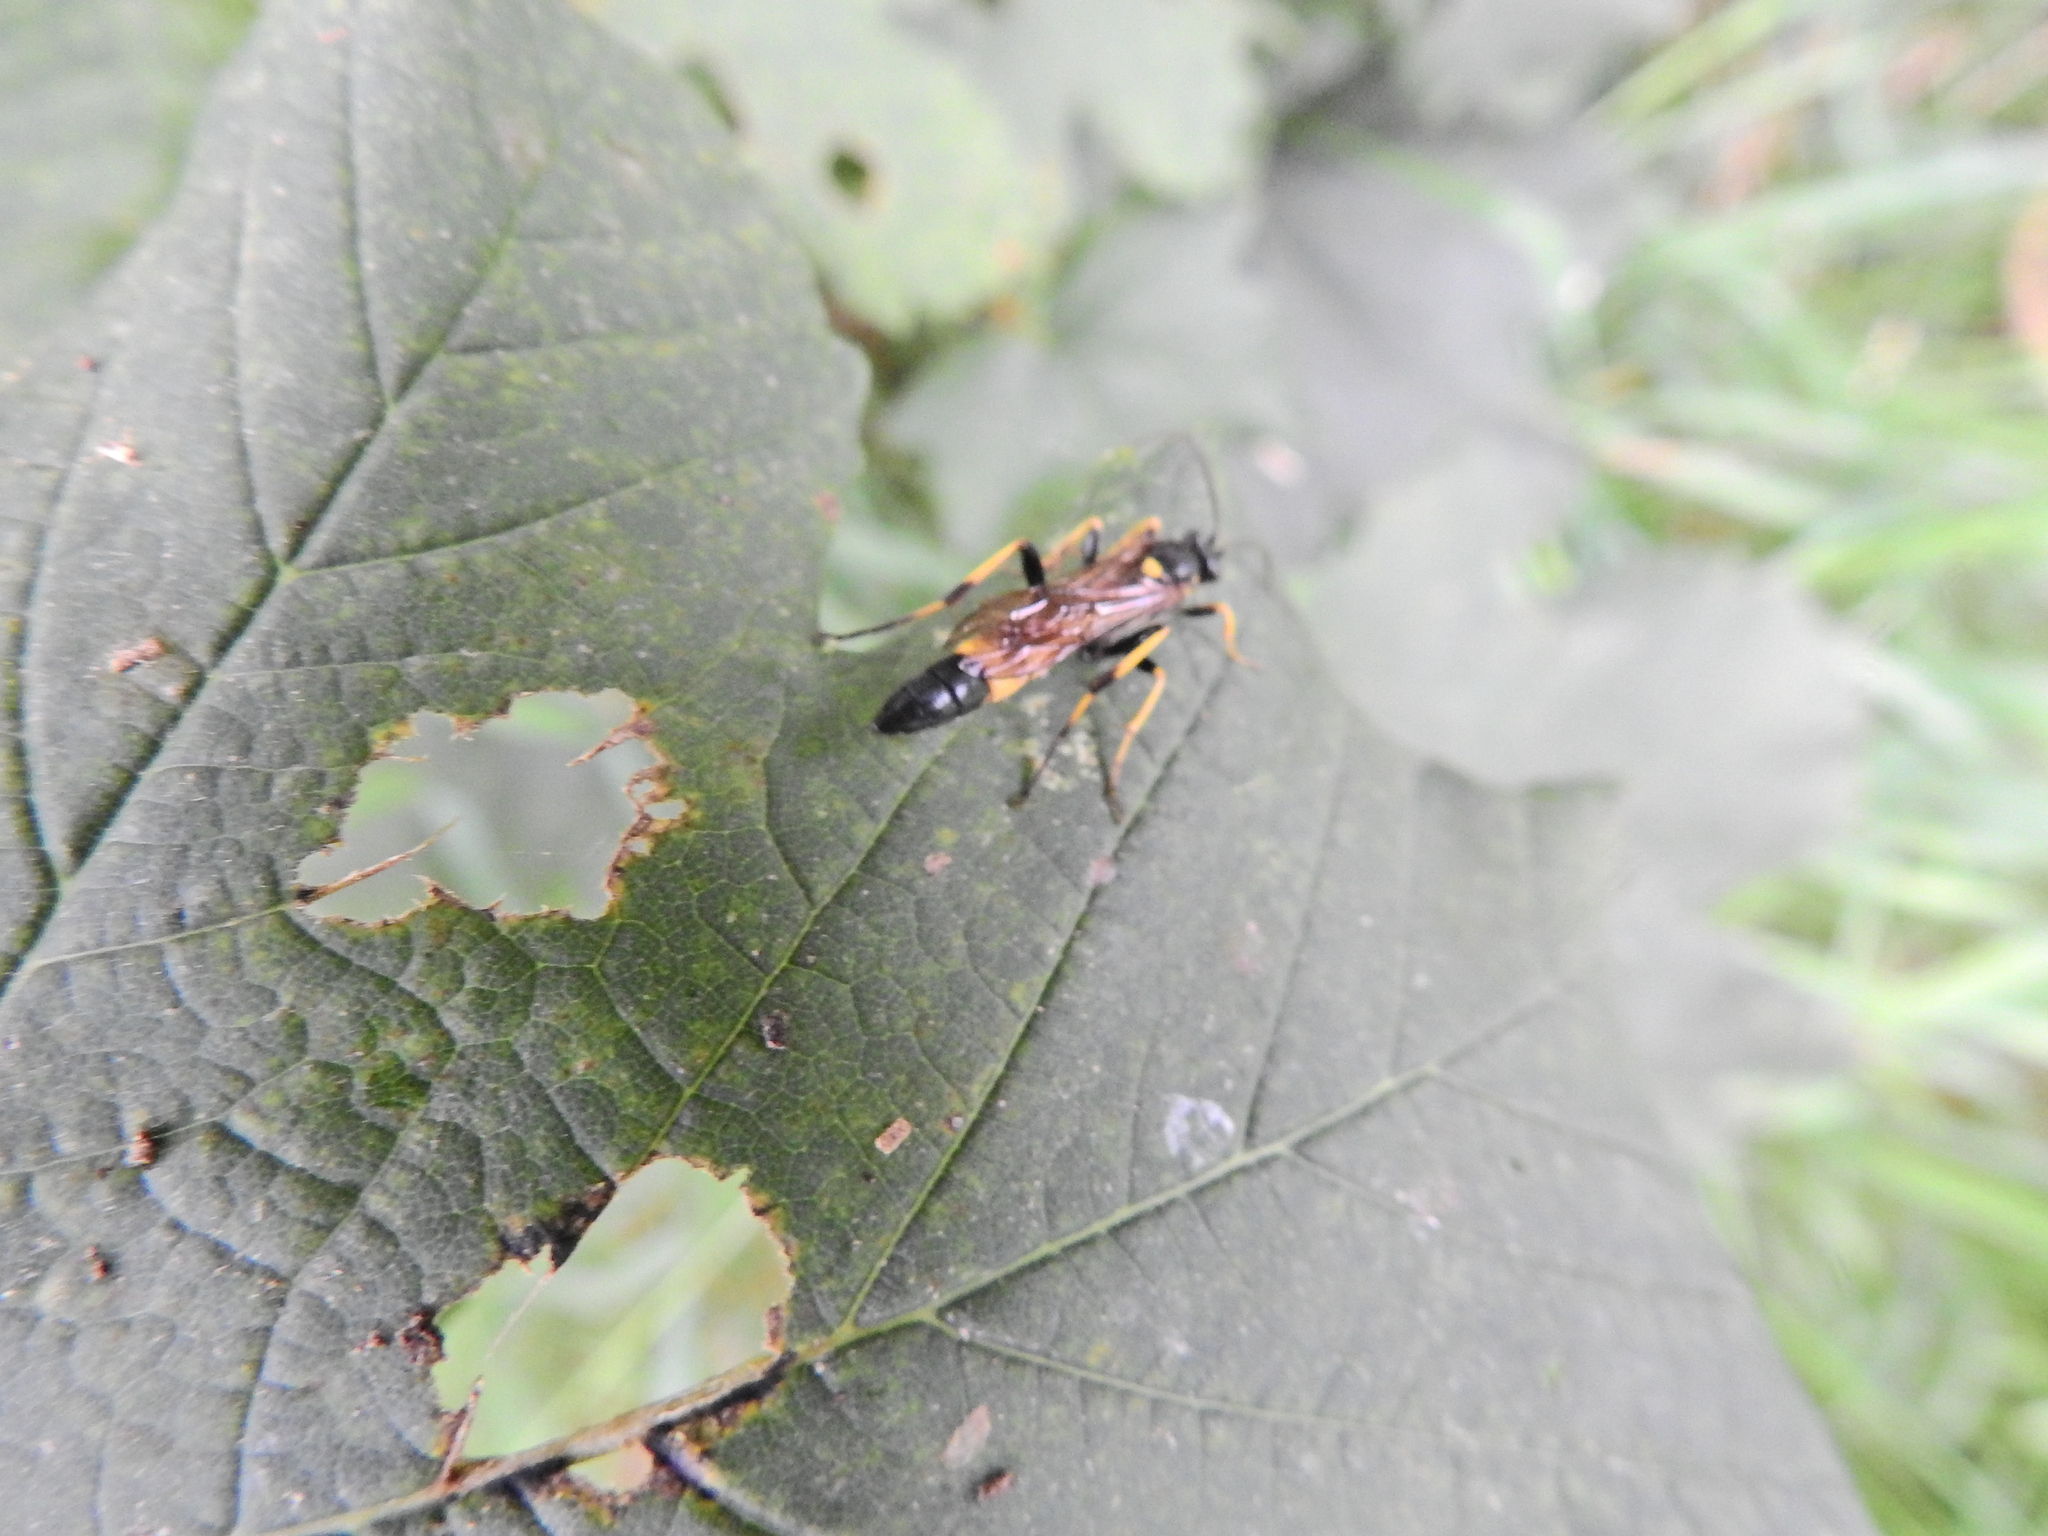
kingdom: Animalia
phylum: Arthropoda
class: Insecta
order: Hymenoptera
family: Ichneumonidae
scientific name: Ichneumonidae
